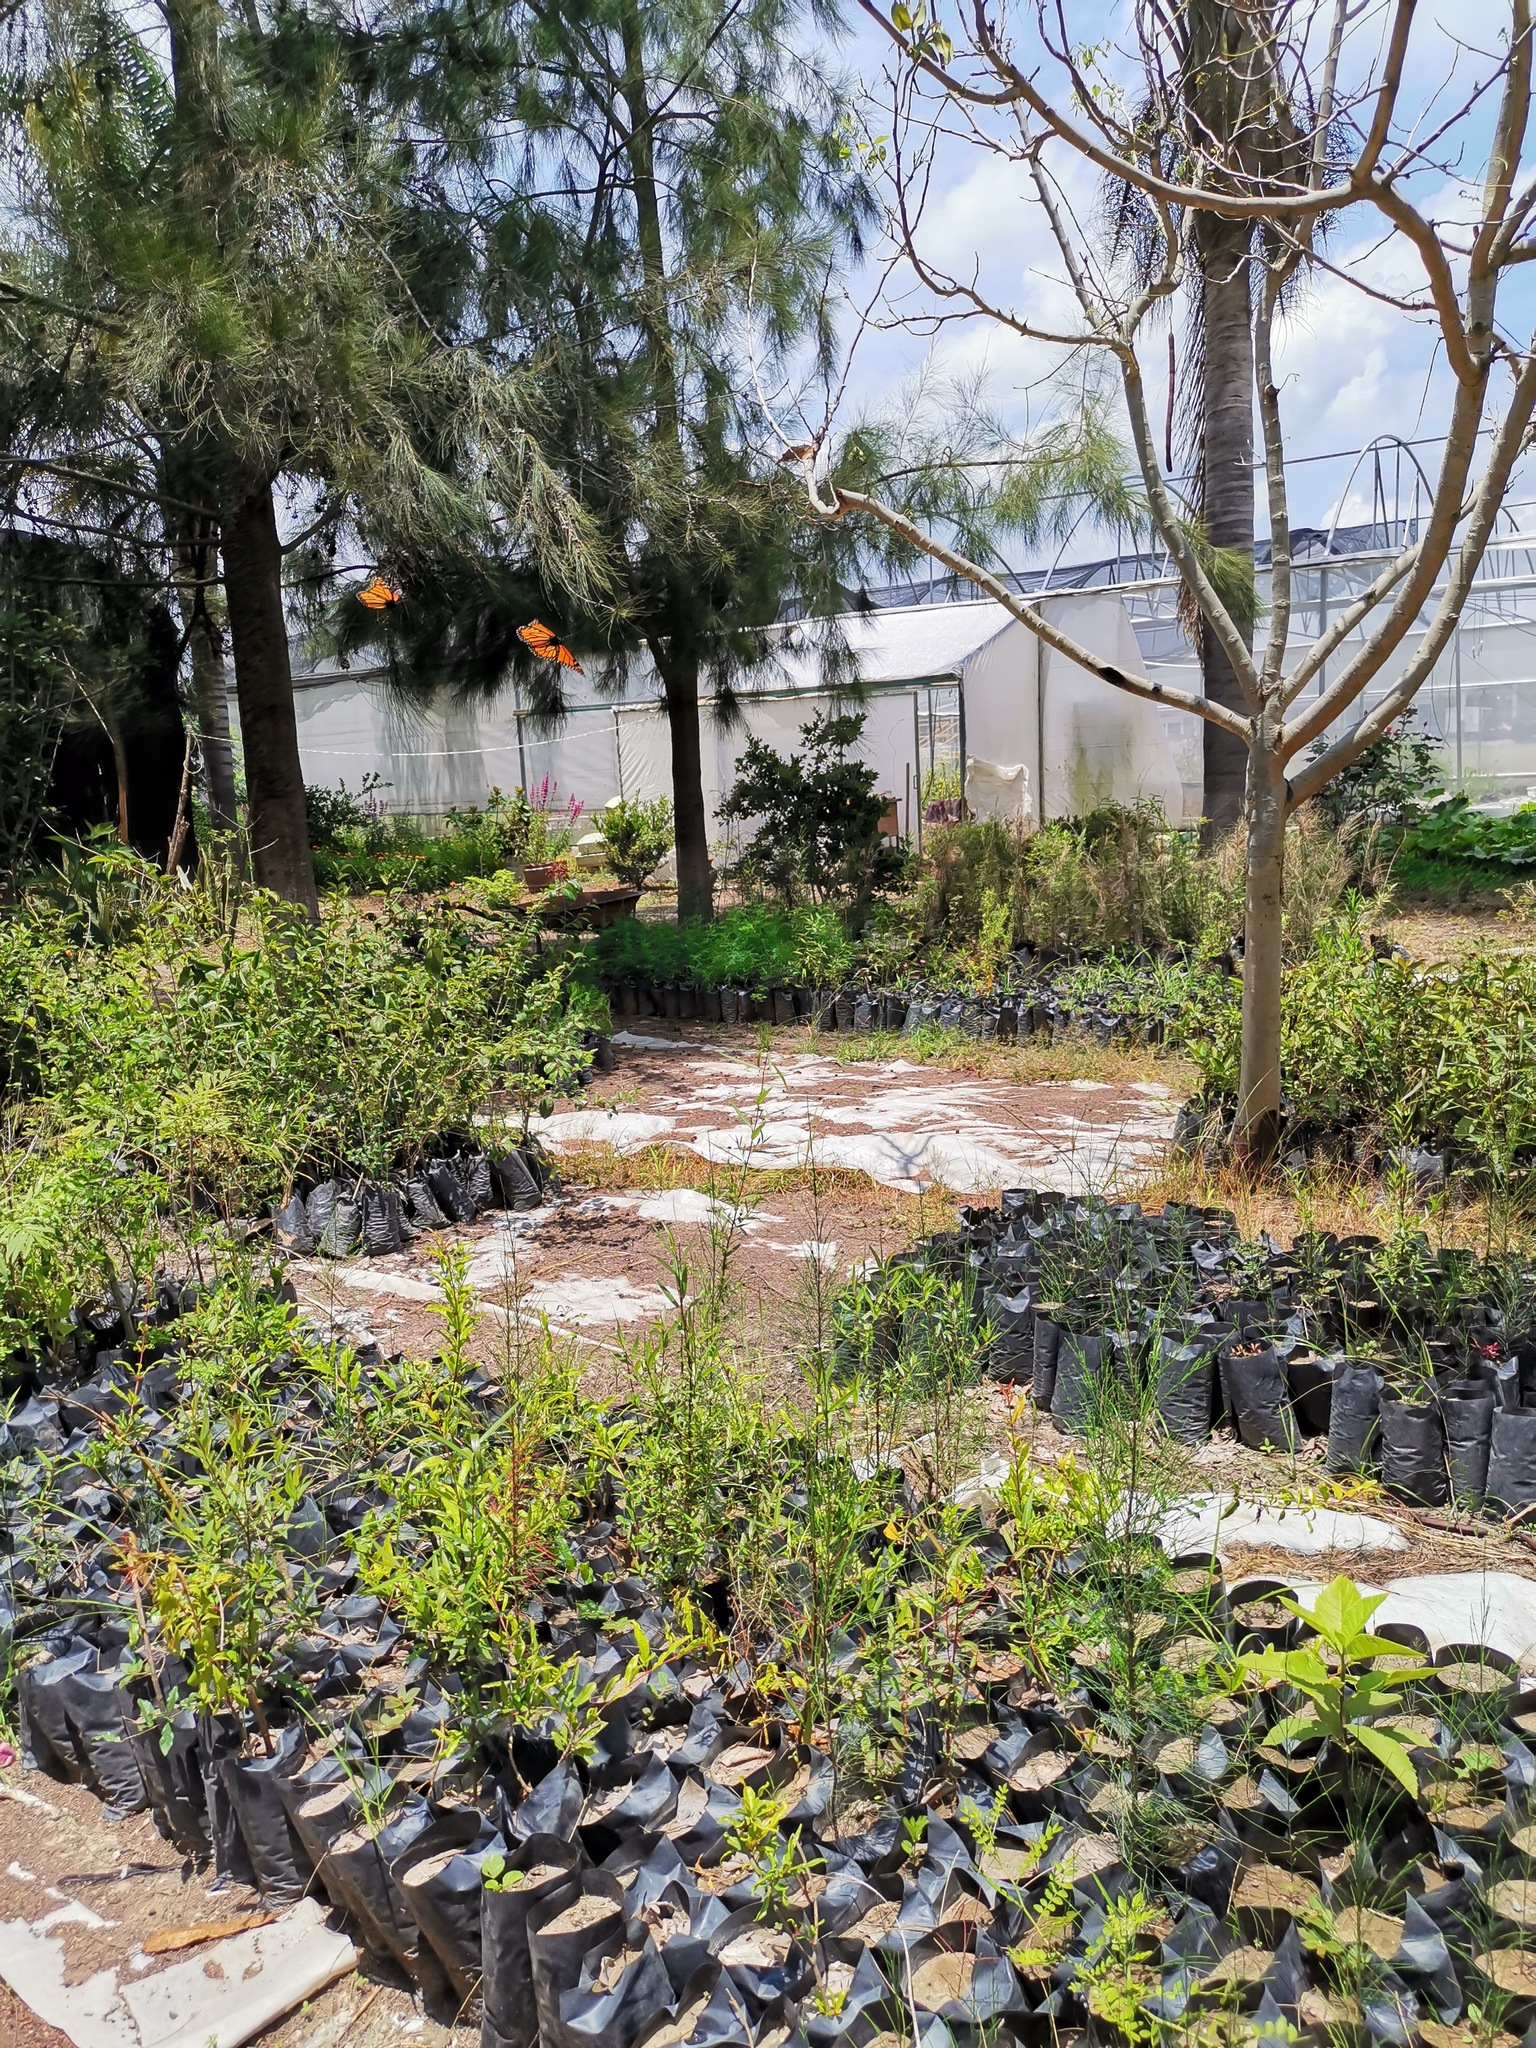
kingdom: Animalia
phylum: Arthropoda
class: Insecta
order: Lepidoptera
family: Nymphalidae
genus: Danaus
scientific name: Danaus plexippus
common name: Monarch
